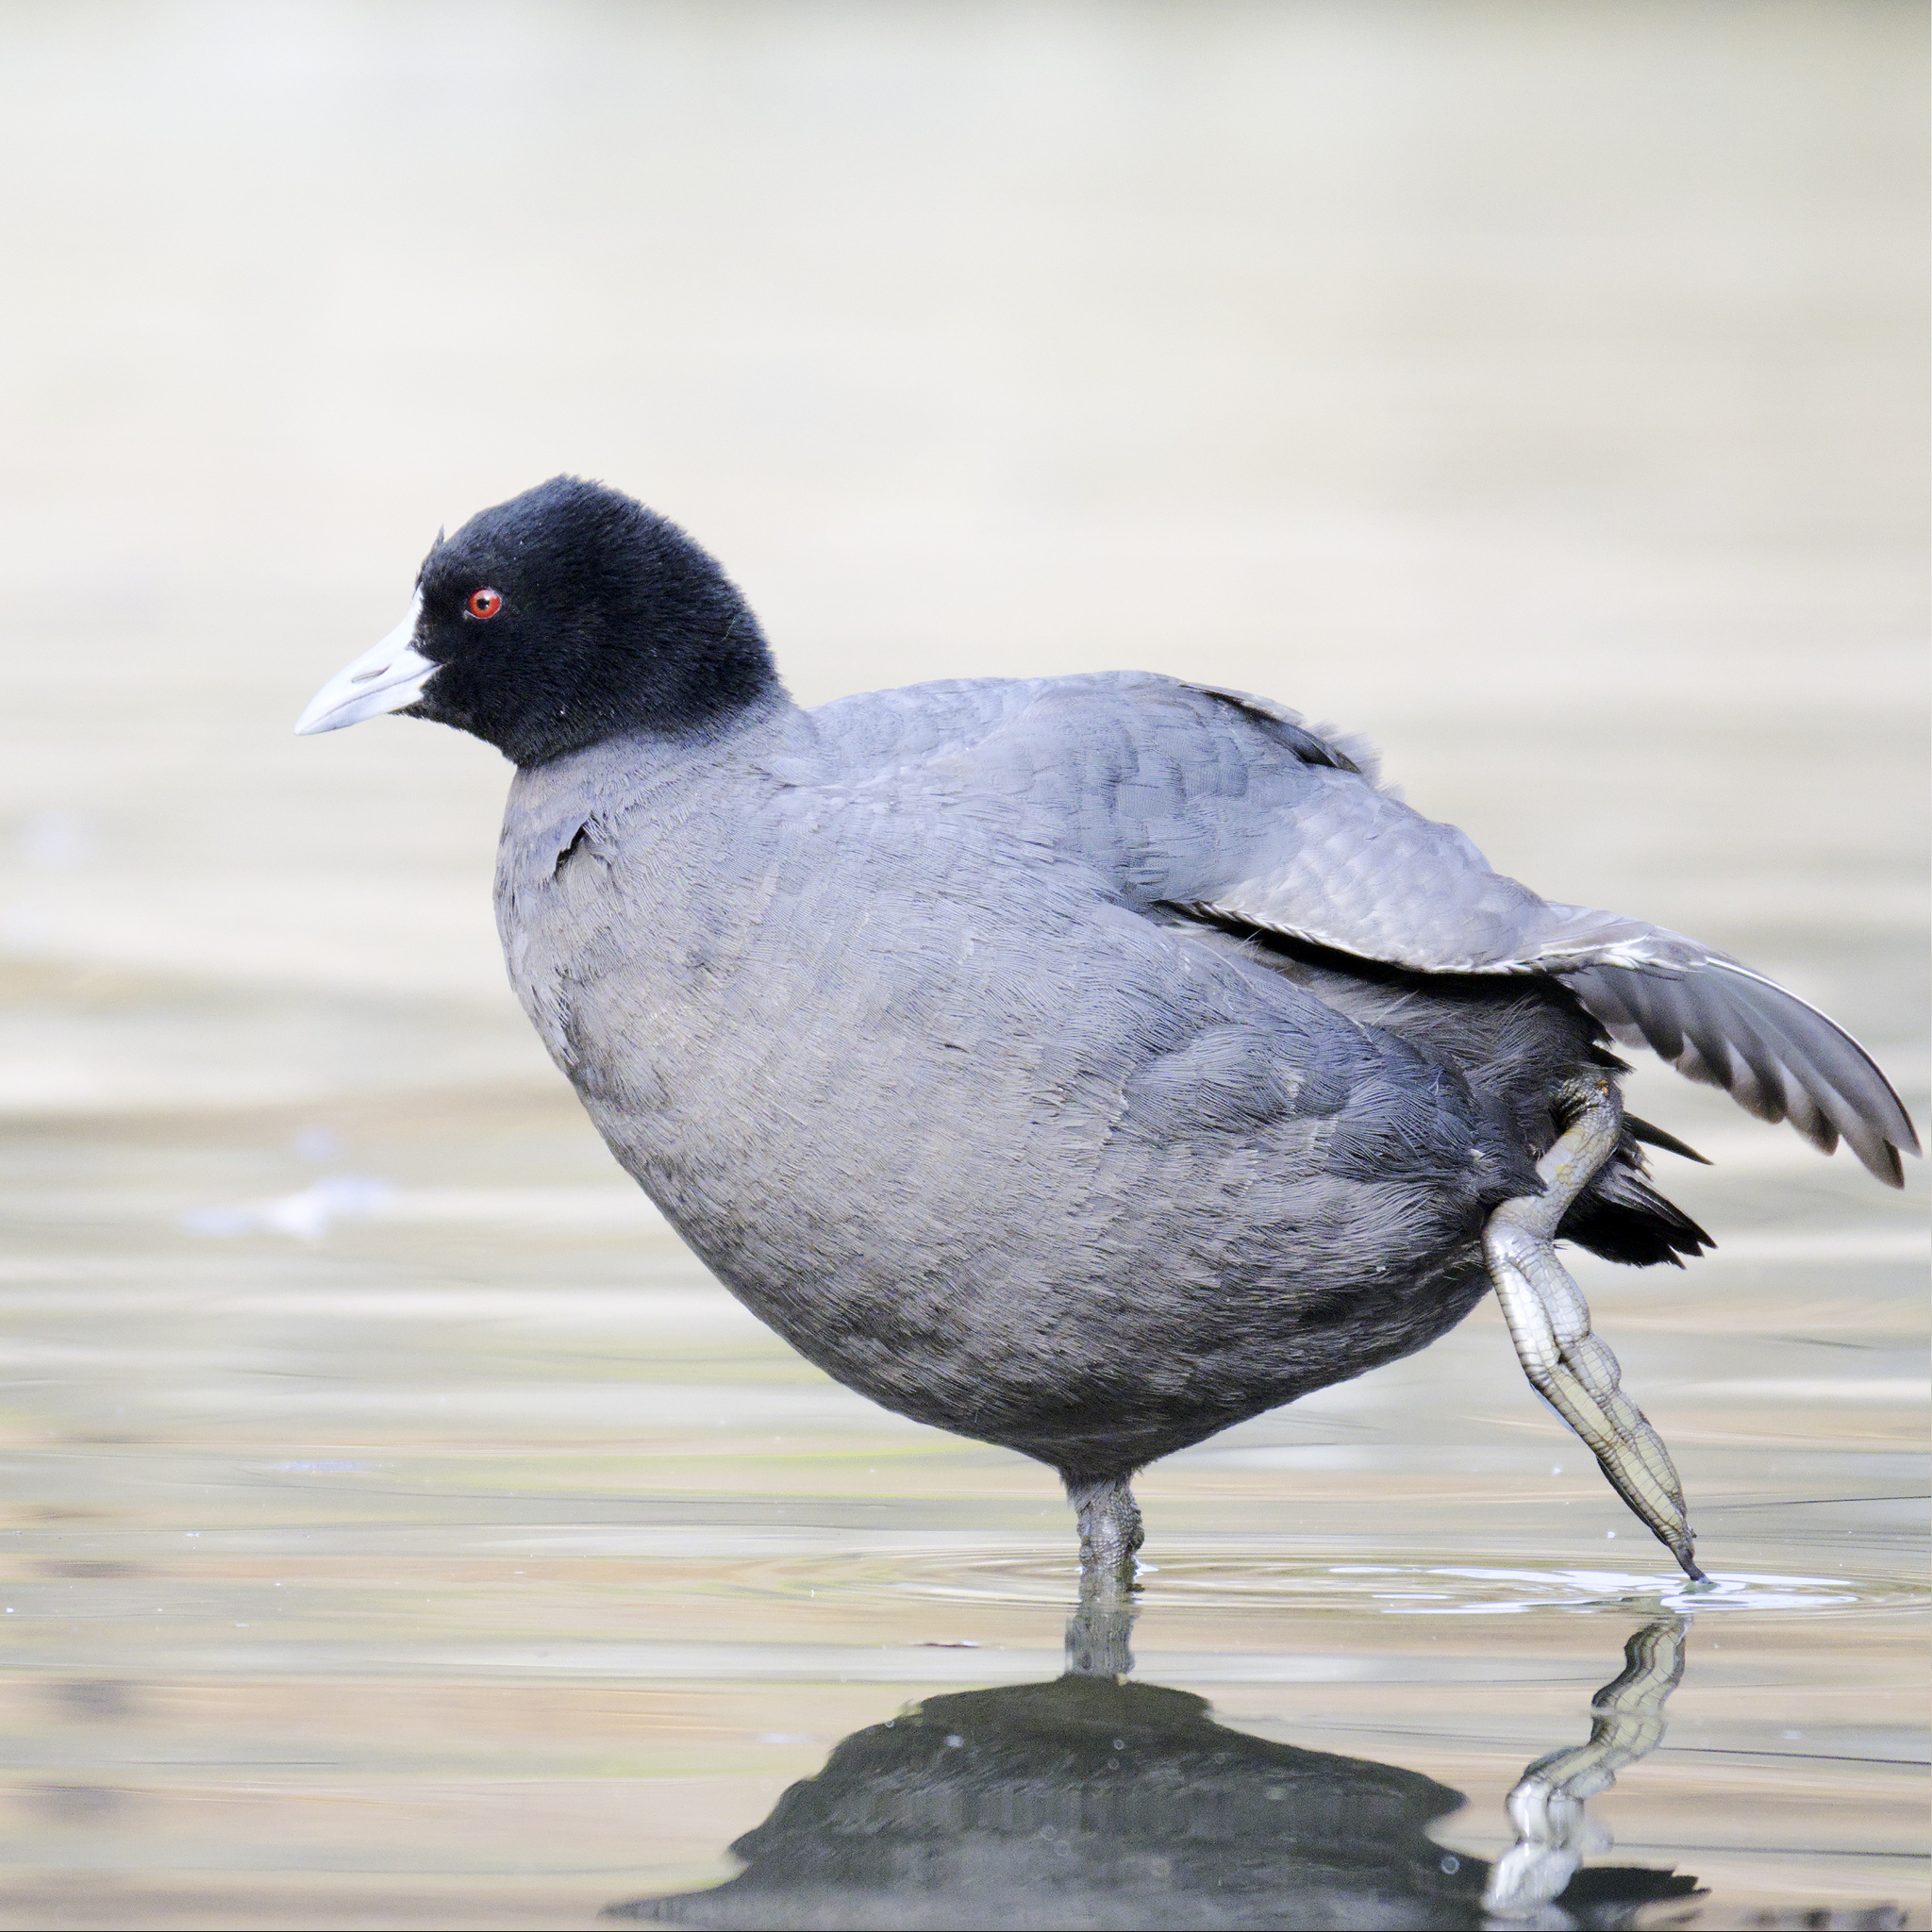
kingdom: Animalia
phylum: Chordata
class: Aves
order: Gruiformes
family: Rallidae
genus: Fulica
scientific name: Fulica atra
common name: Eurasian coot
